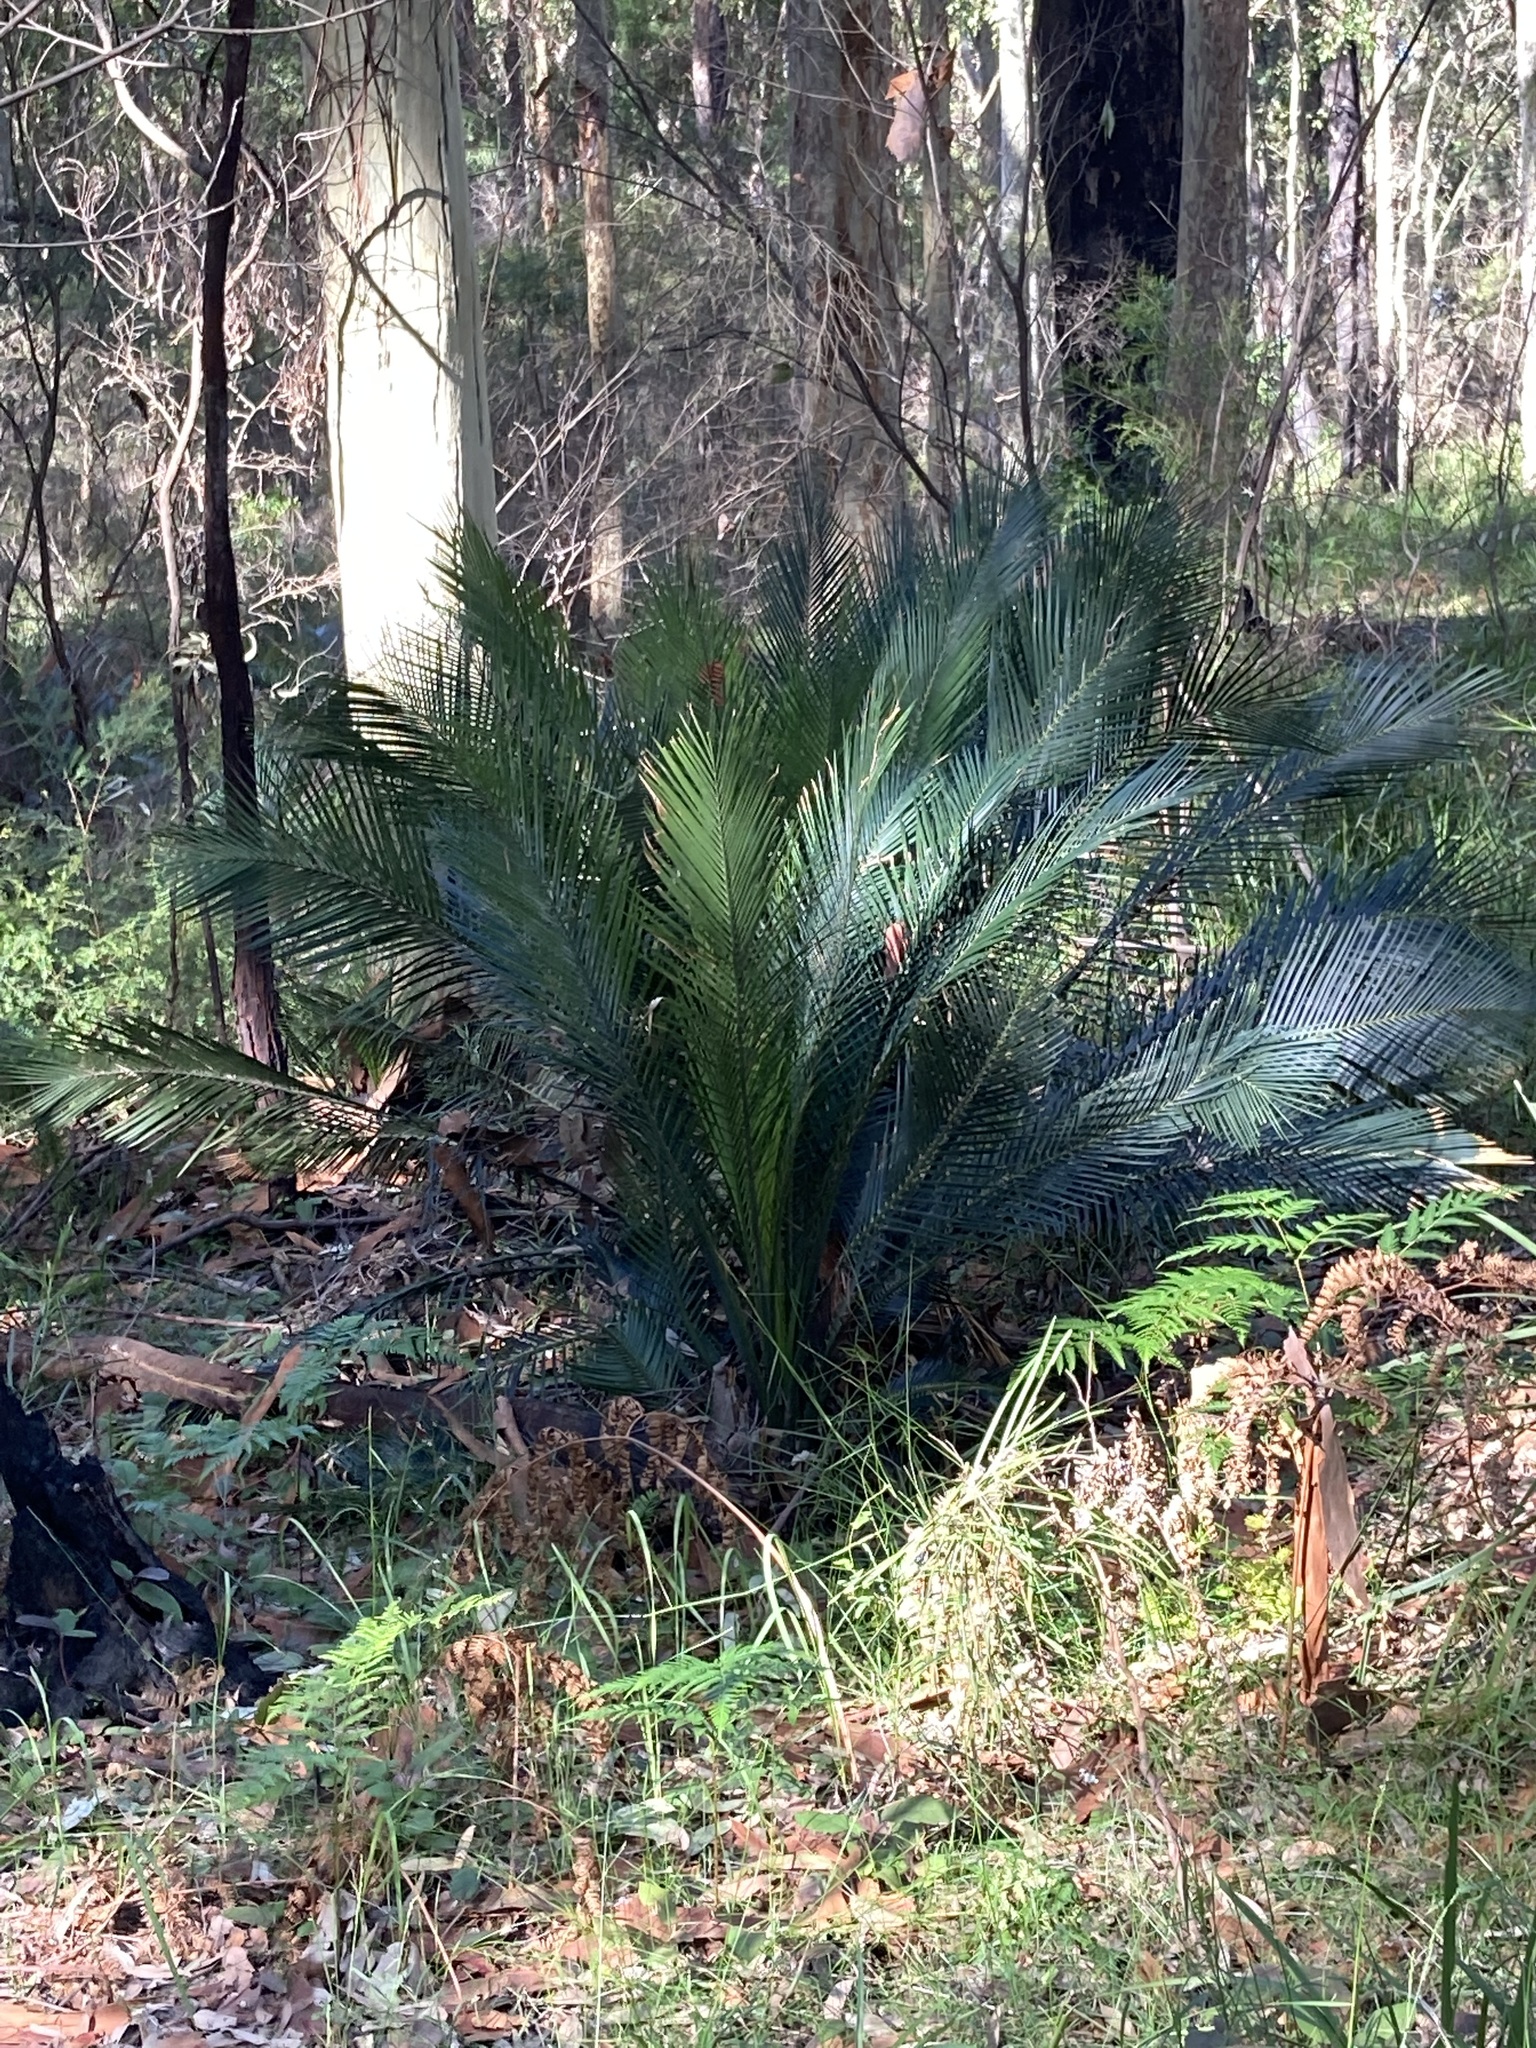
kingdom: Plantae
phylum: Tracheophyta
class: Cycadopsida
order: Cycadales
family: Zamiaceae
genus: Macrozamia
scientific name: Macrozamia communis
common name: Burrawong
